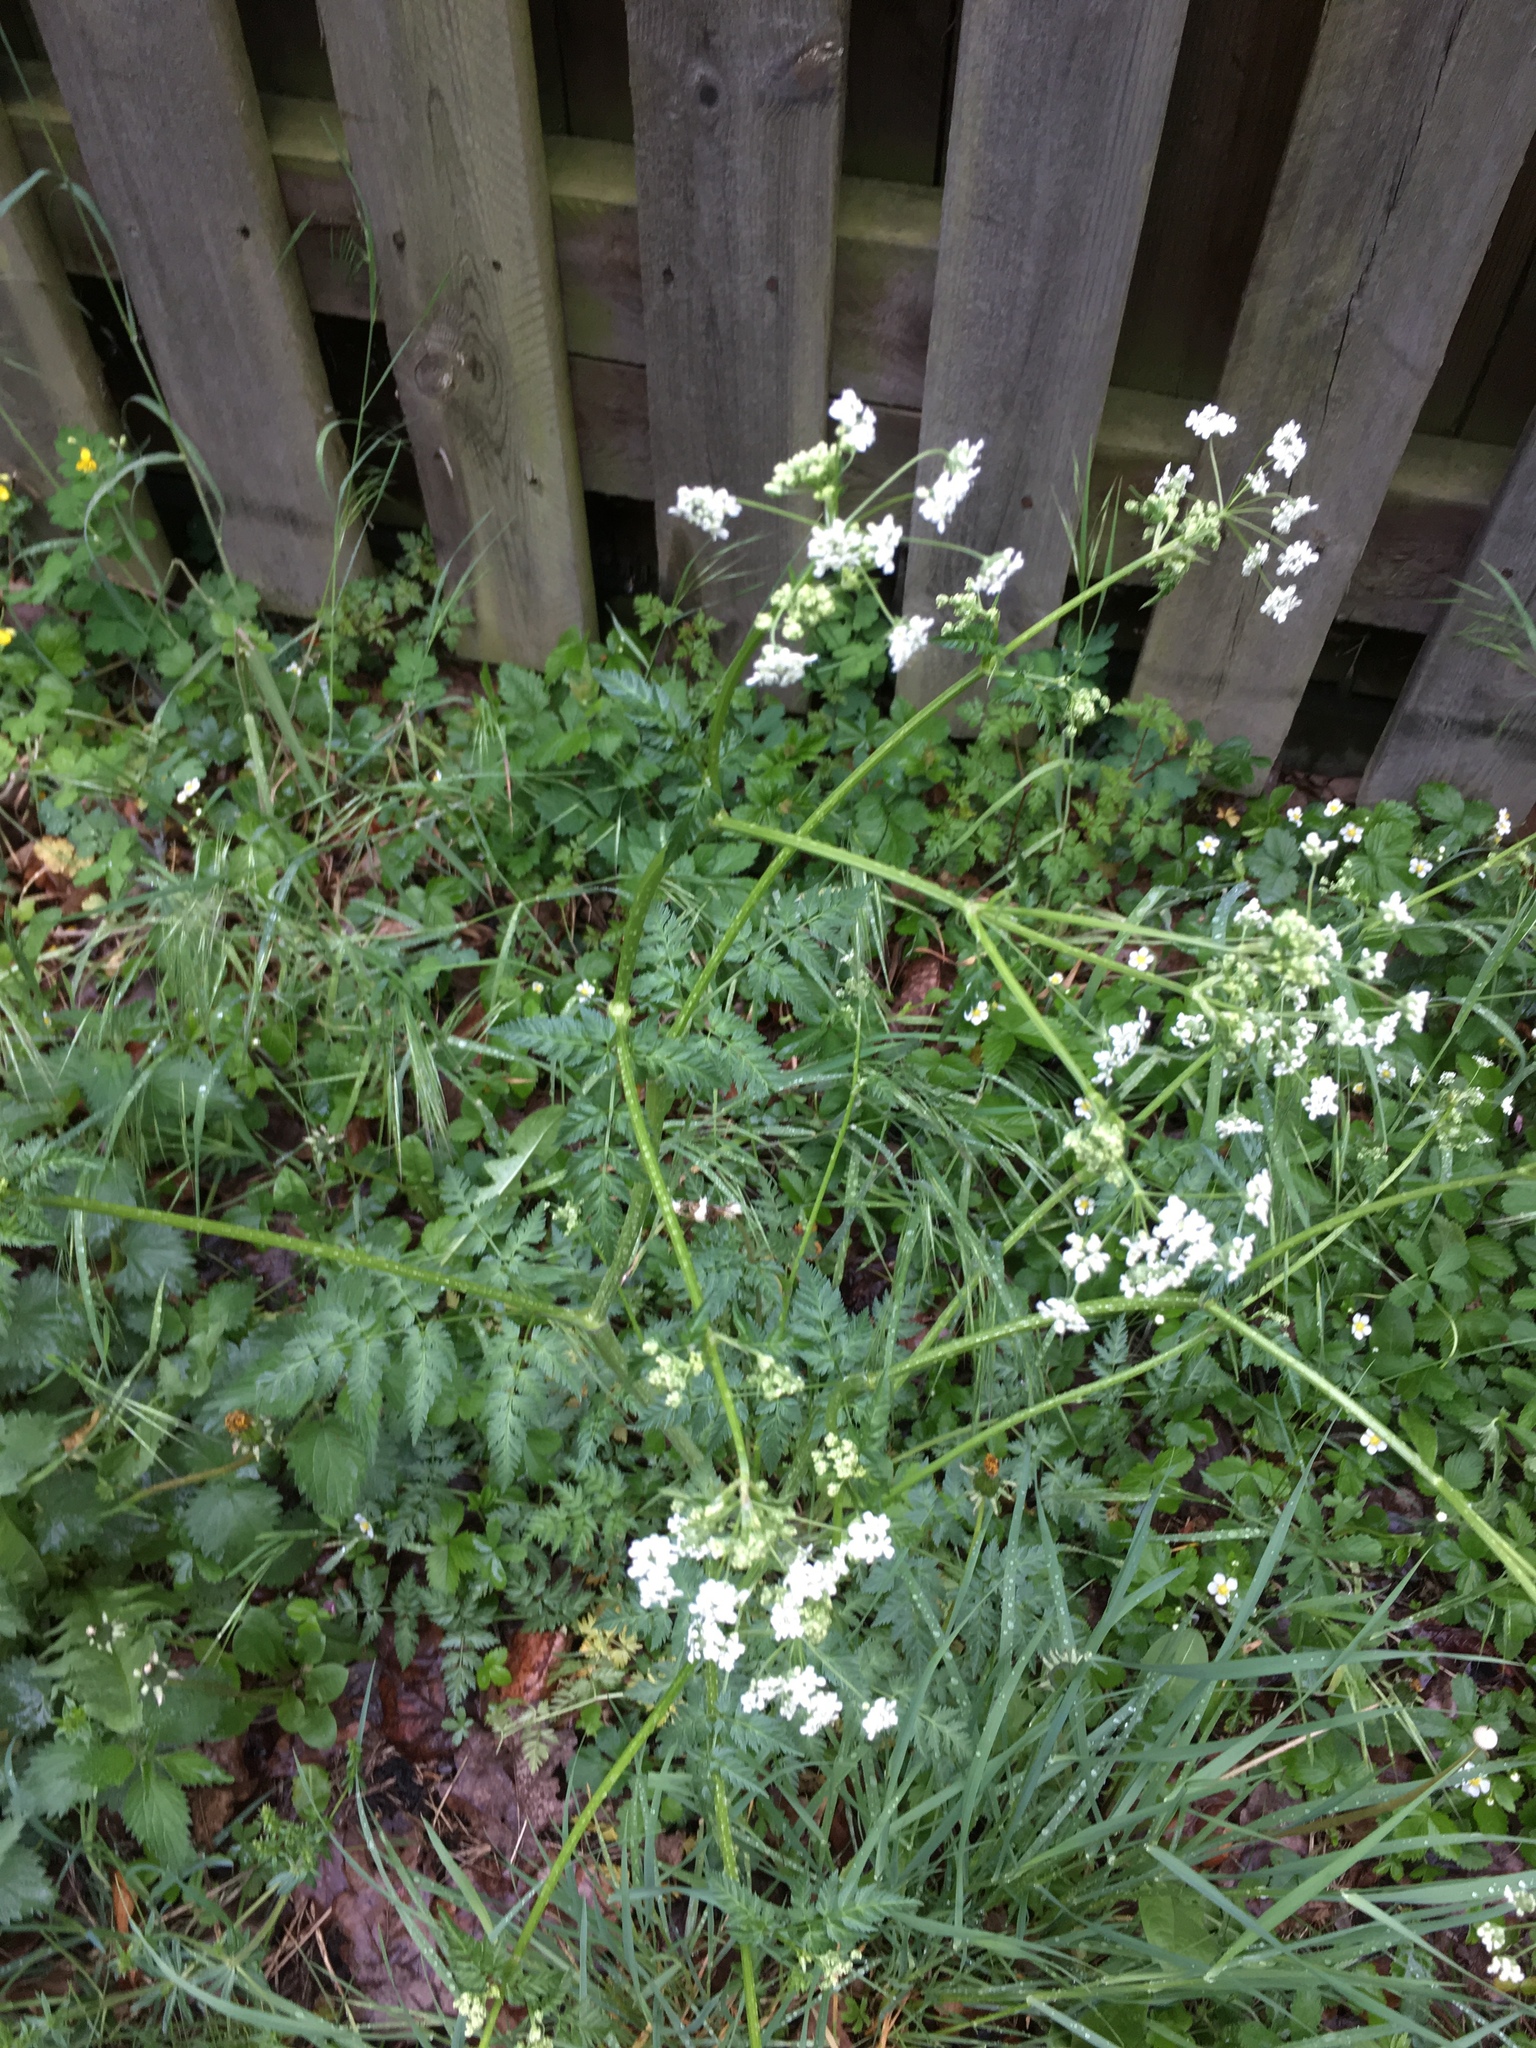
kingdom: Plantae
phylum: Tracheophyta
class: Magnoliopsida
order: Apiales
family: Apiaceae
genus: Anthriscus
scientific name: Anthriscus sylvestris
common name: Cow parsley
